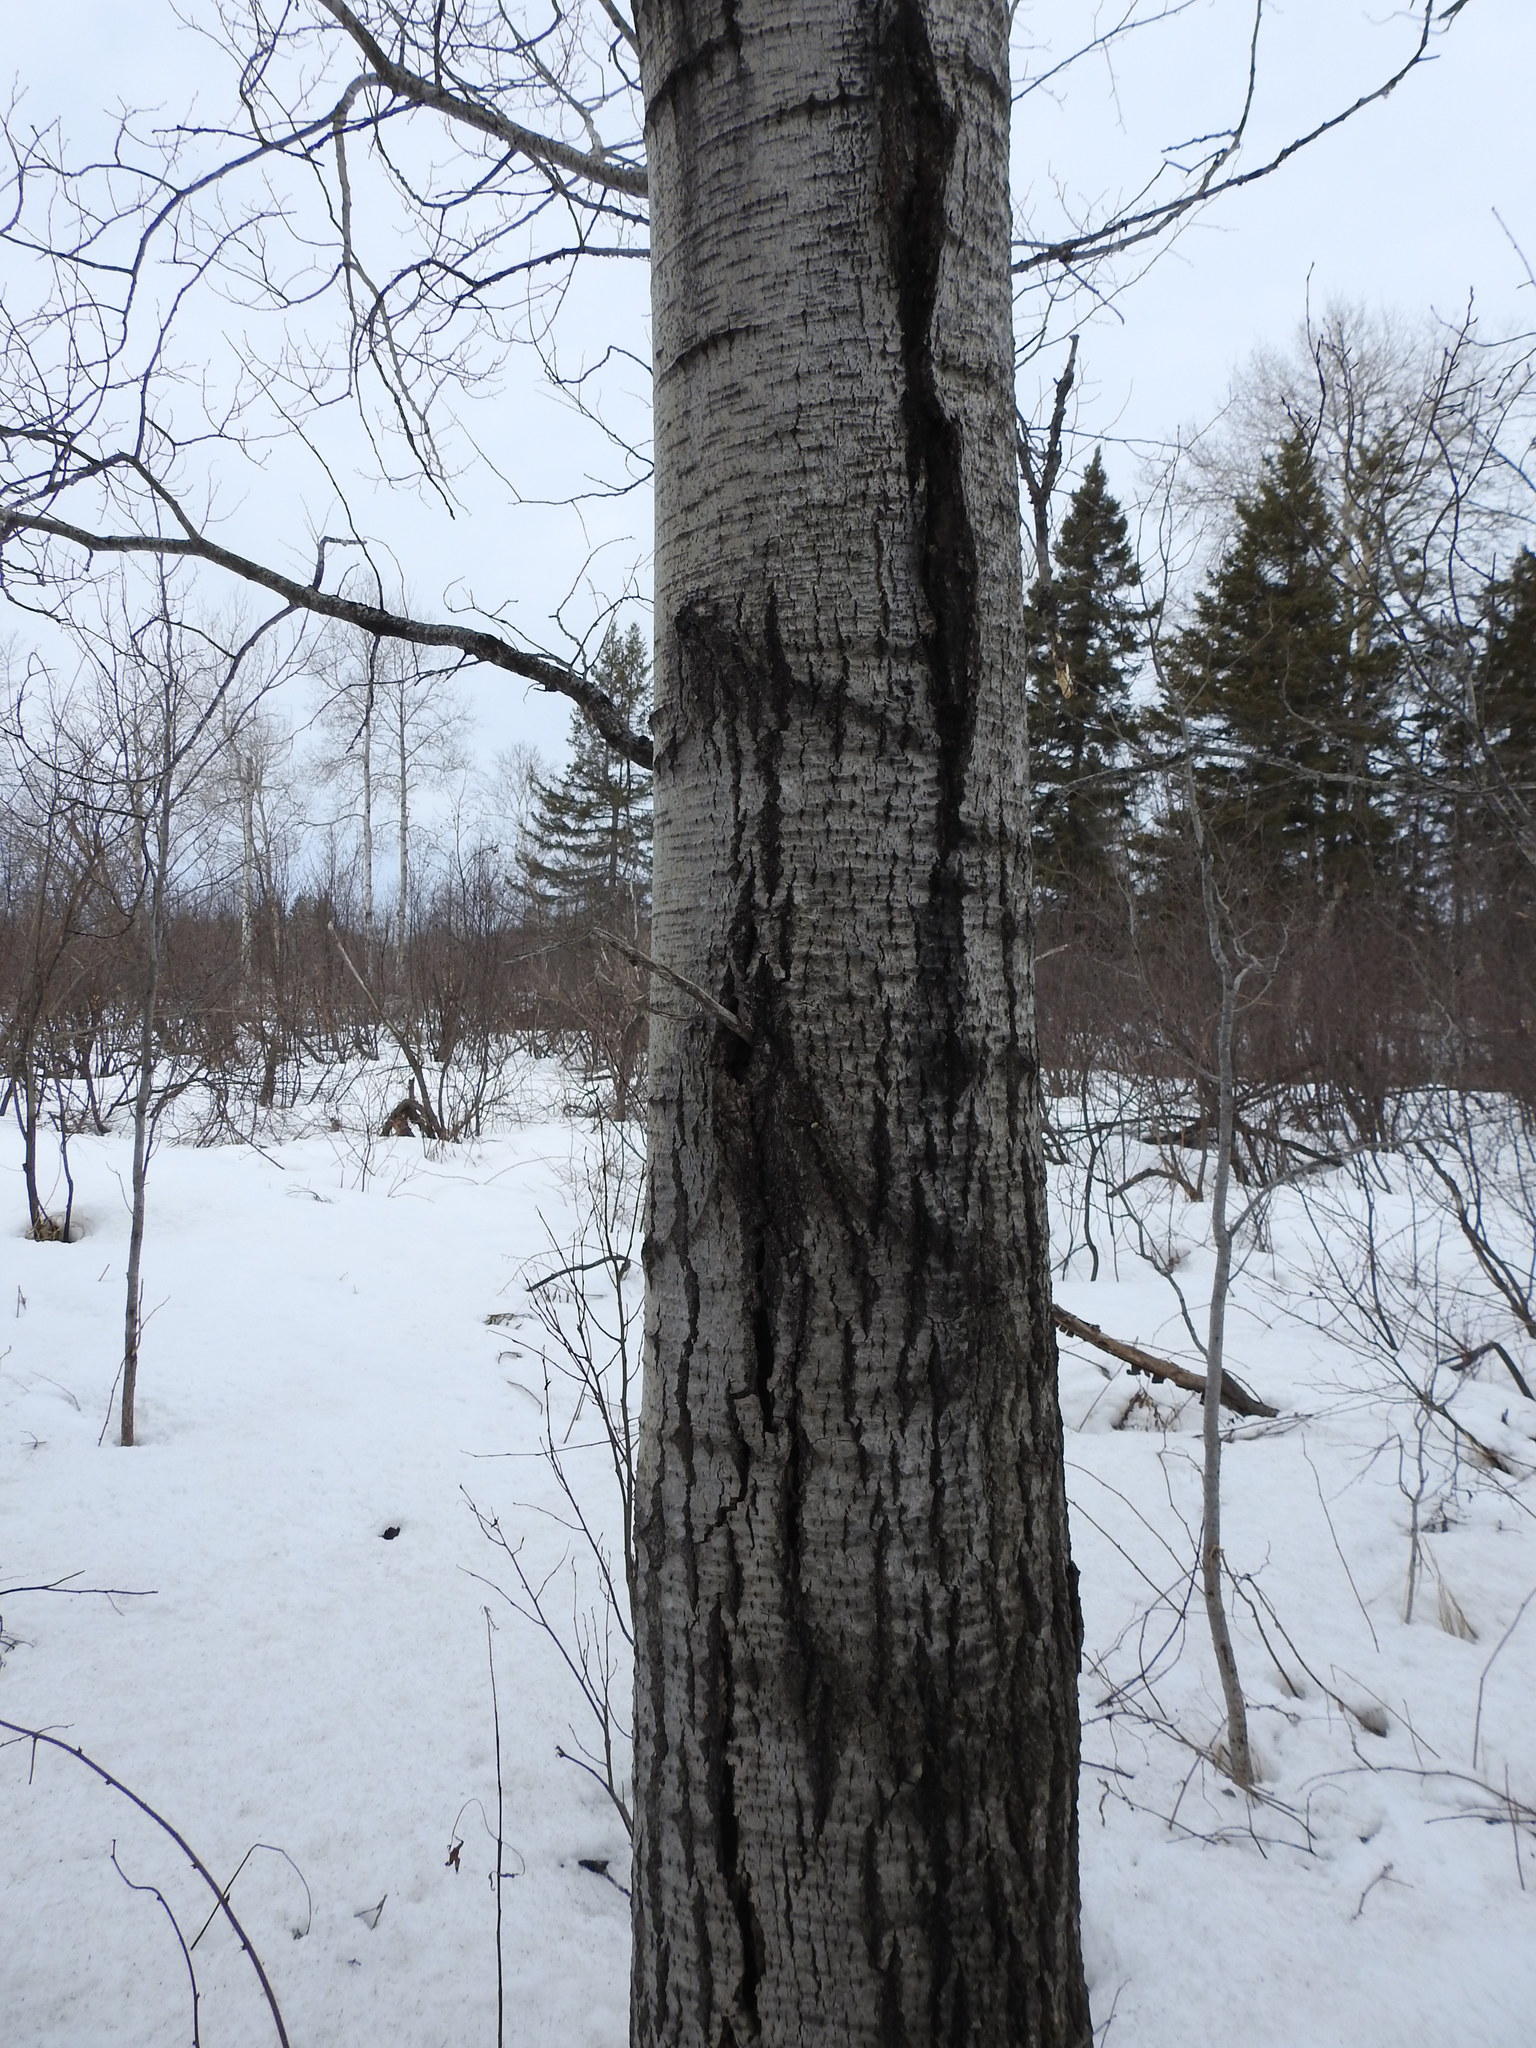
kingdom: Plantae
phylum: Tracheophyta
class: Magnoliopsida
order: Malpighiales
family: Salicaceae
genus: Populus
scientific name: Populus tremuloides
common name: Quaking aspen
